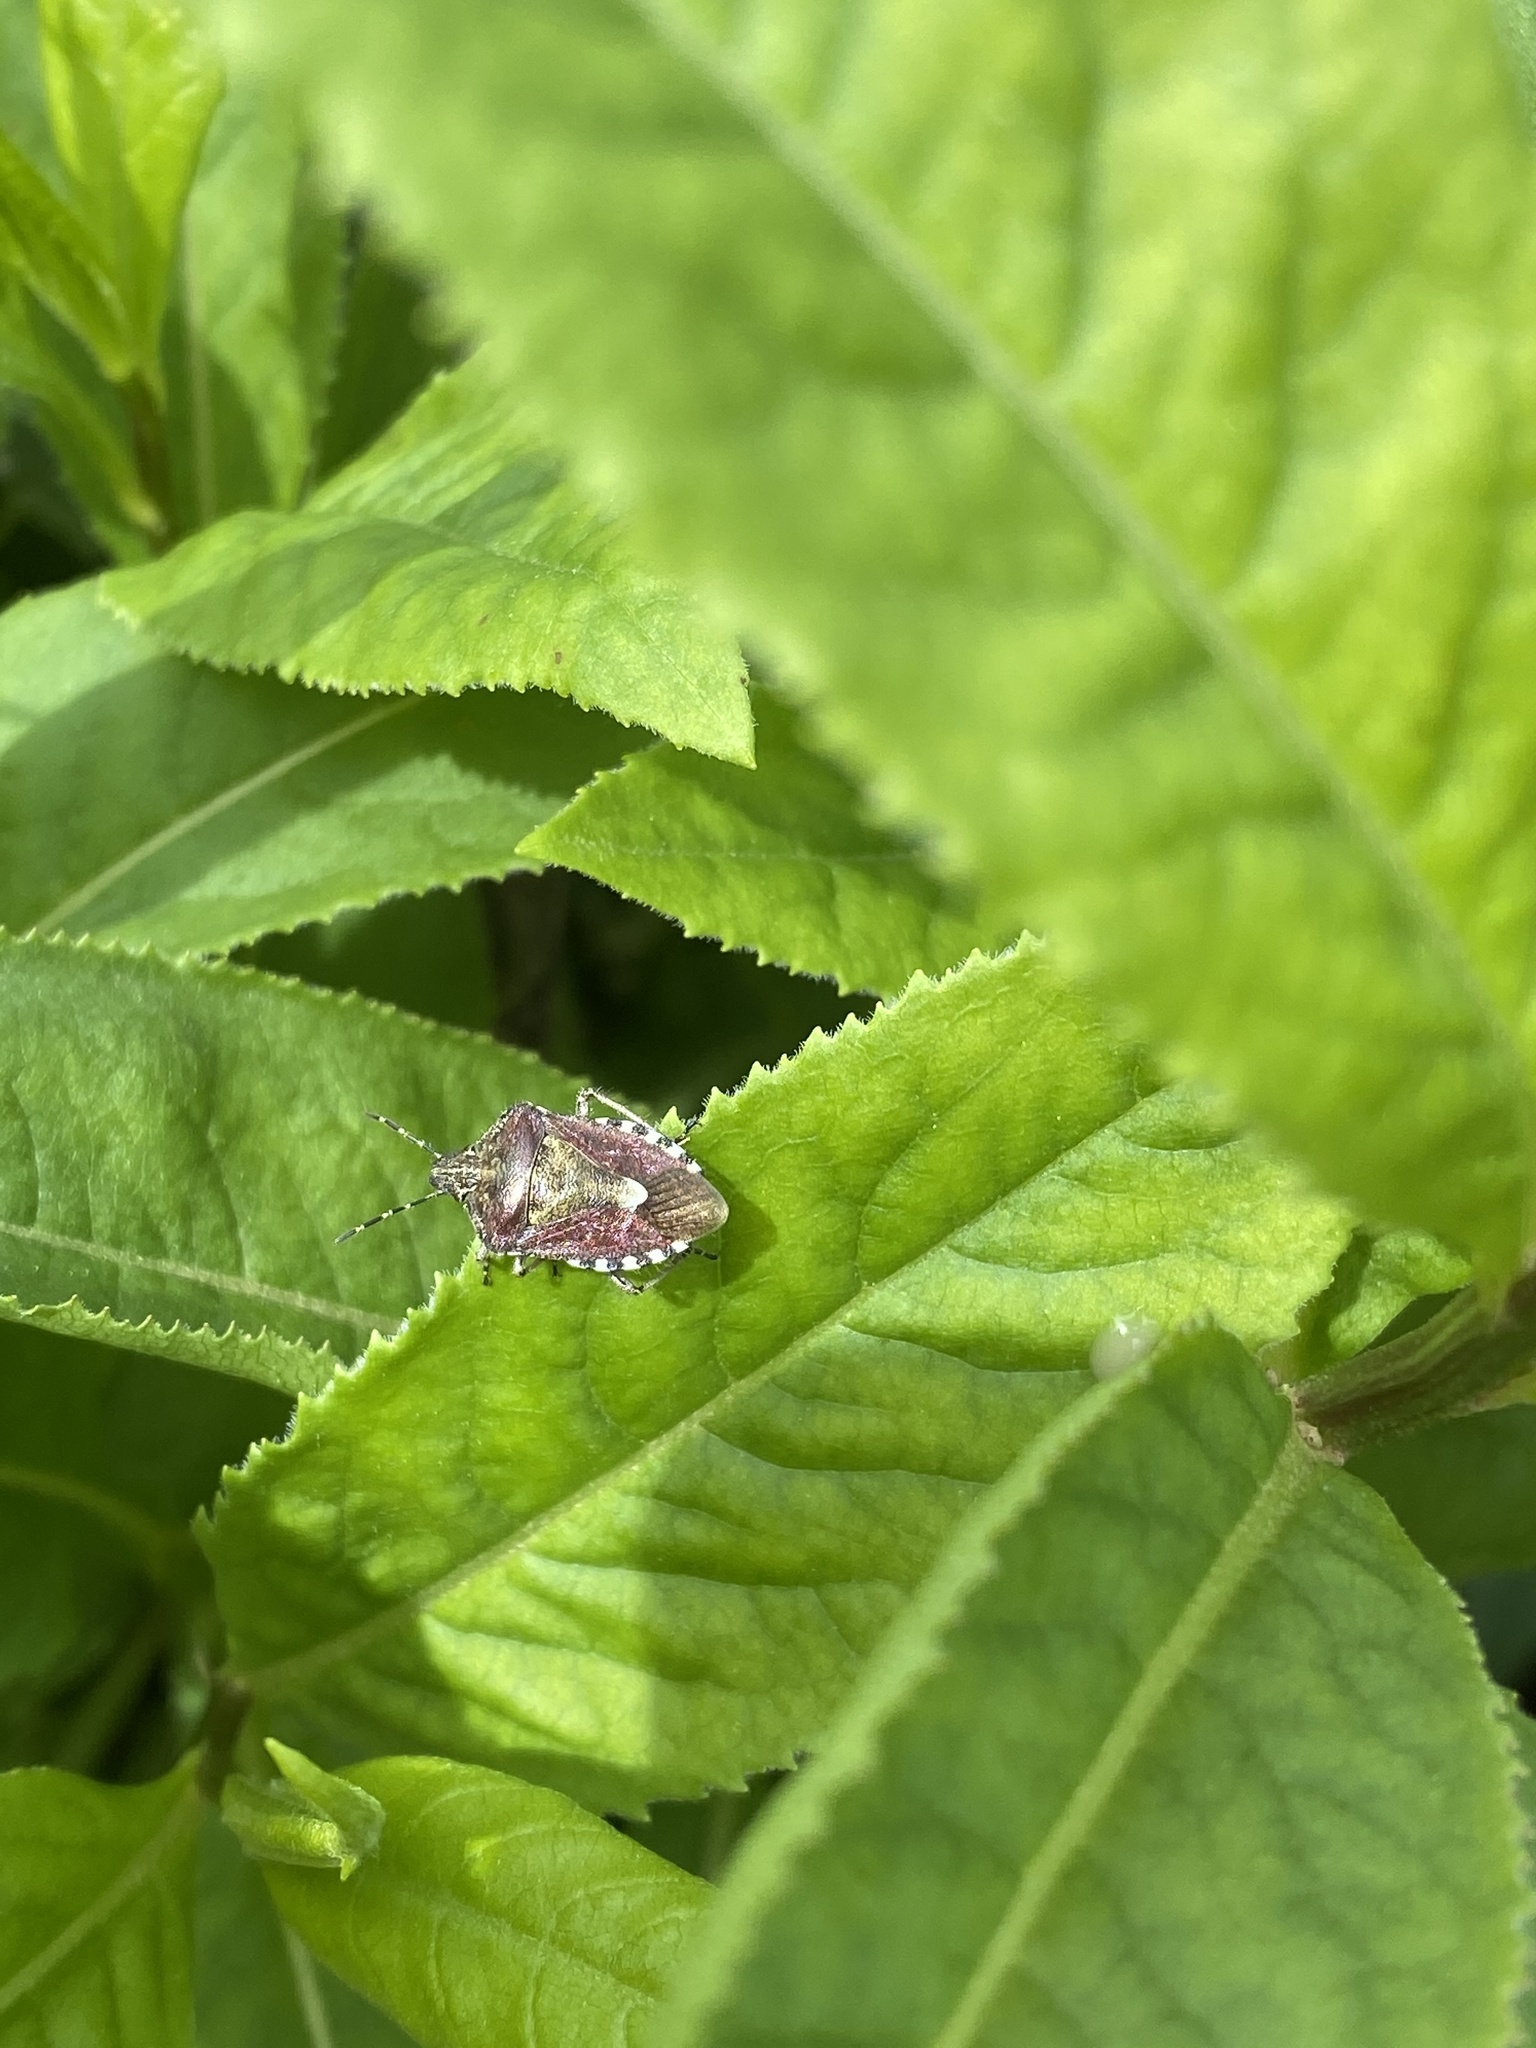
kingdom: Animalia
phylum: Arthropoda
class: Insecta
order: Hemiptera
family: Pentatomidae
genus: Dolycoris
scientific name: Dolycoris baccarum
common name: Sloe bug
